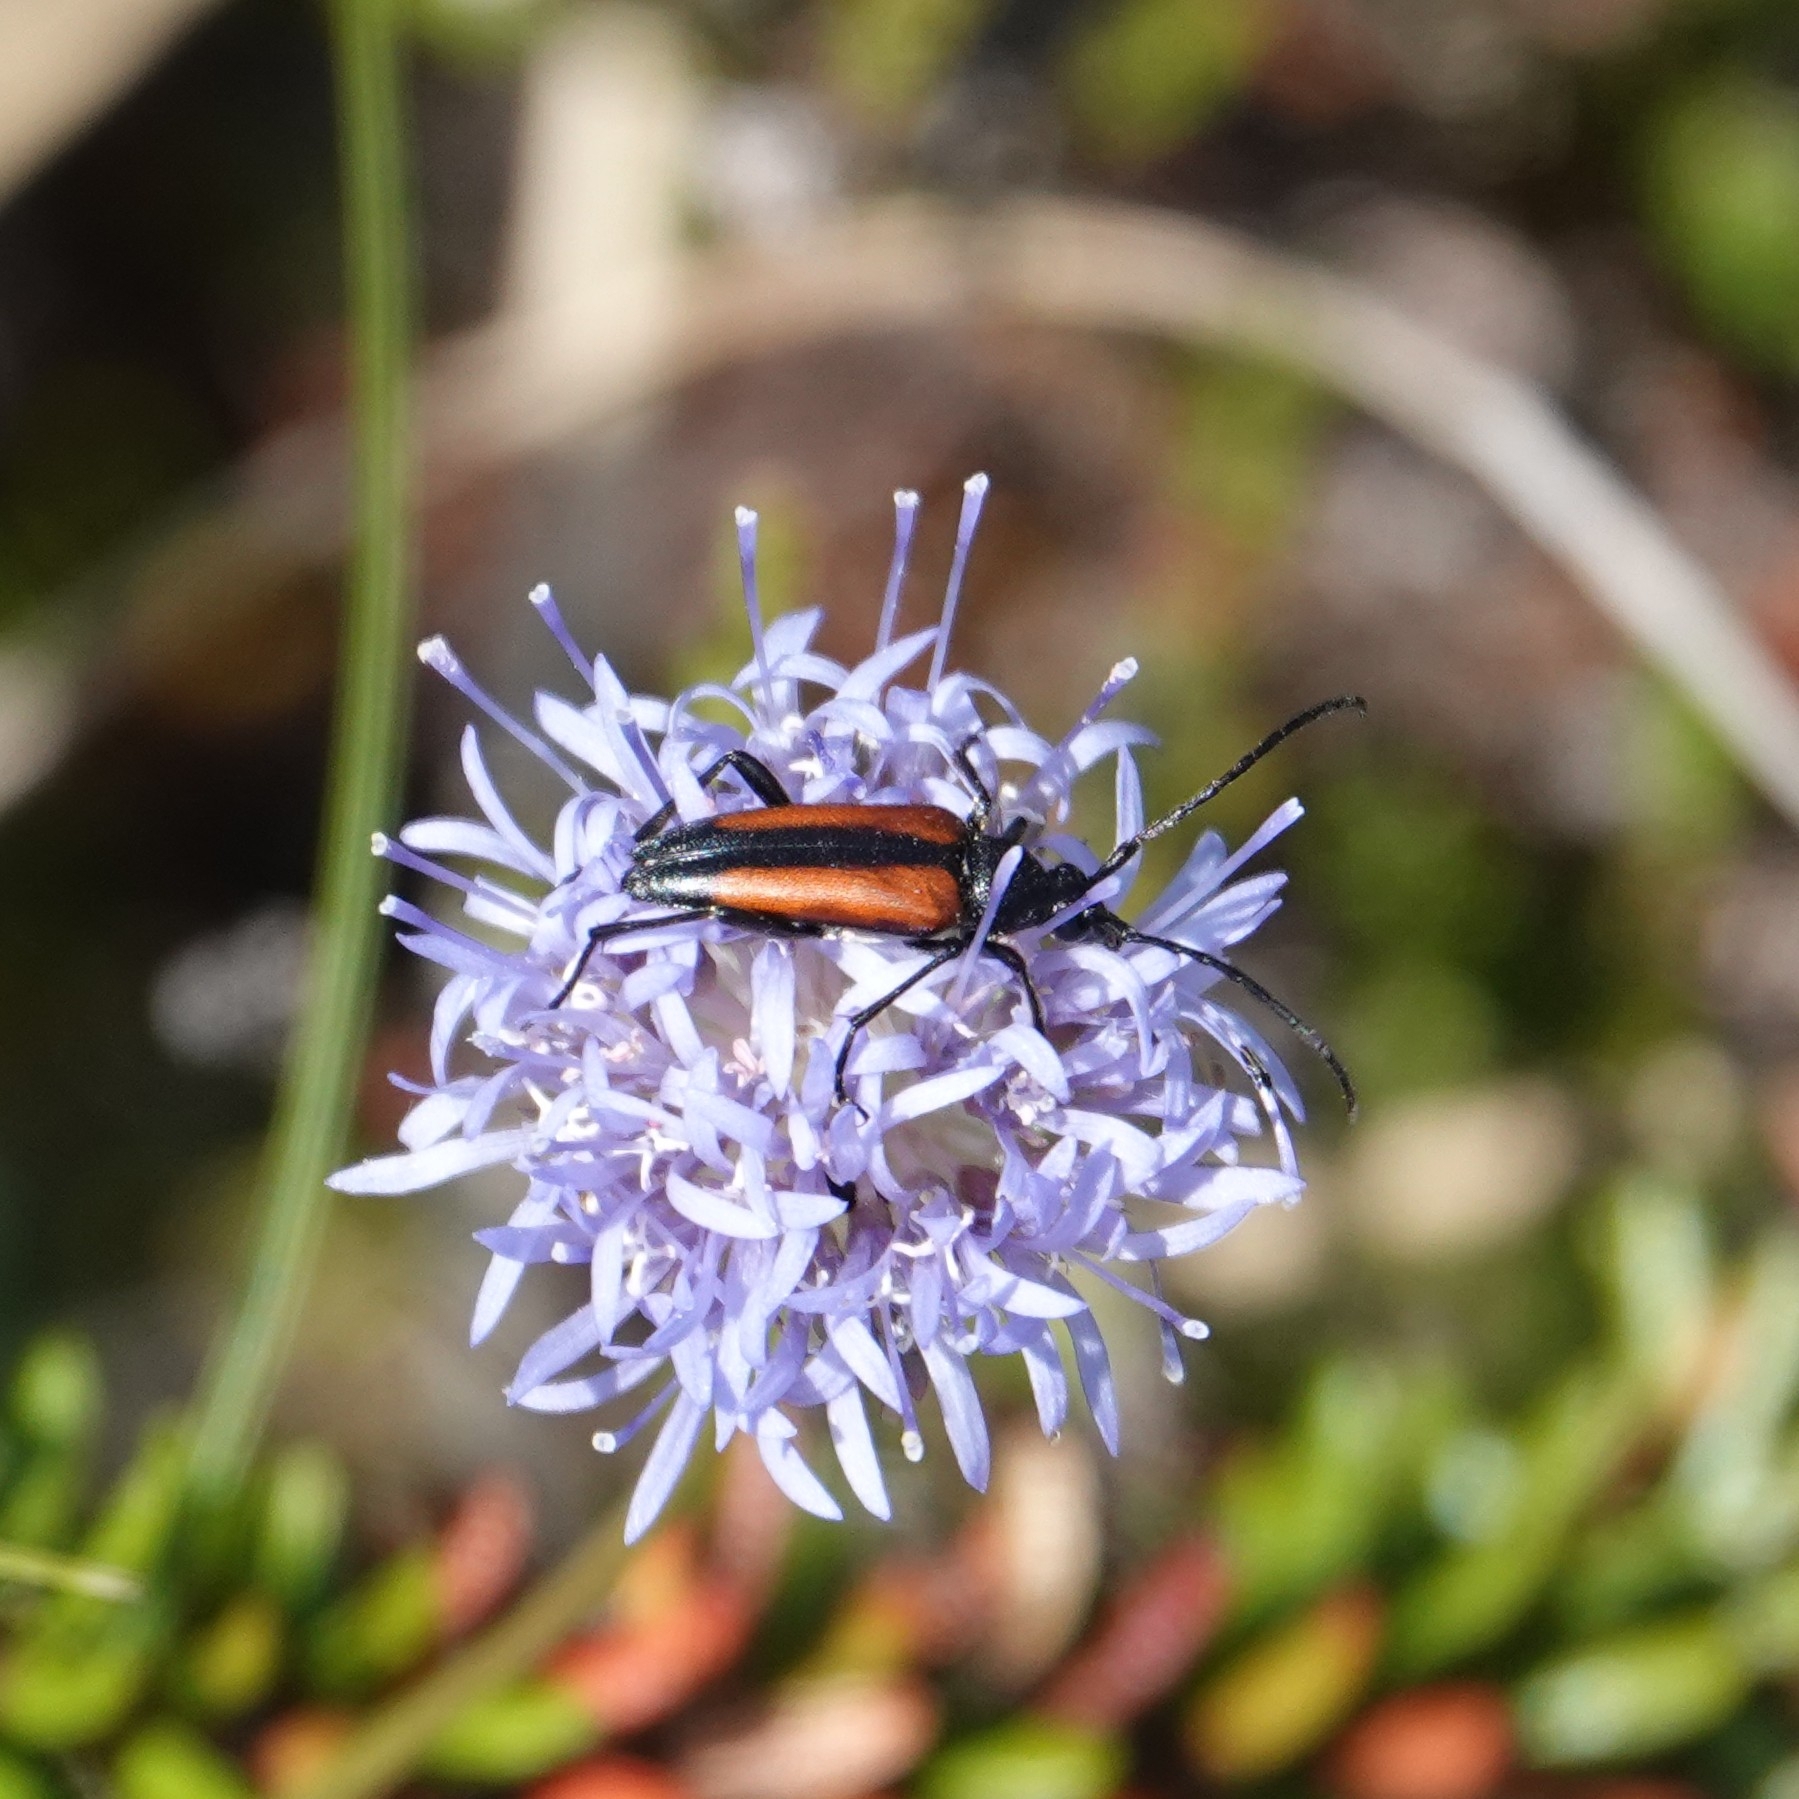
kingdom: Animalia
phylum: Arthropoda
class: Insecta
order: Coleoptera
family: Cerambycidae
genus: Stenurella
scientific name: Stenurella melanura
